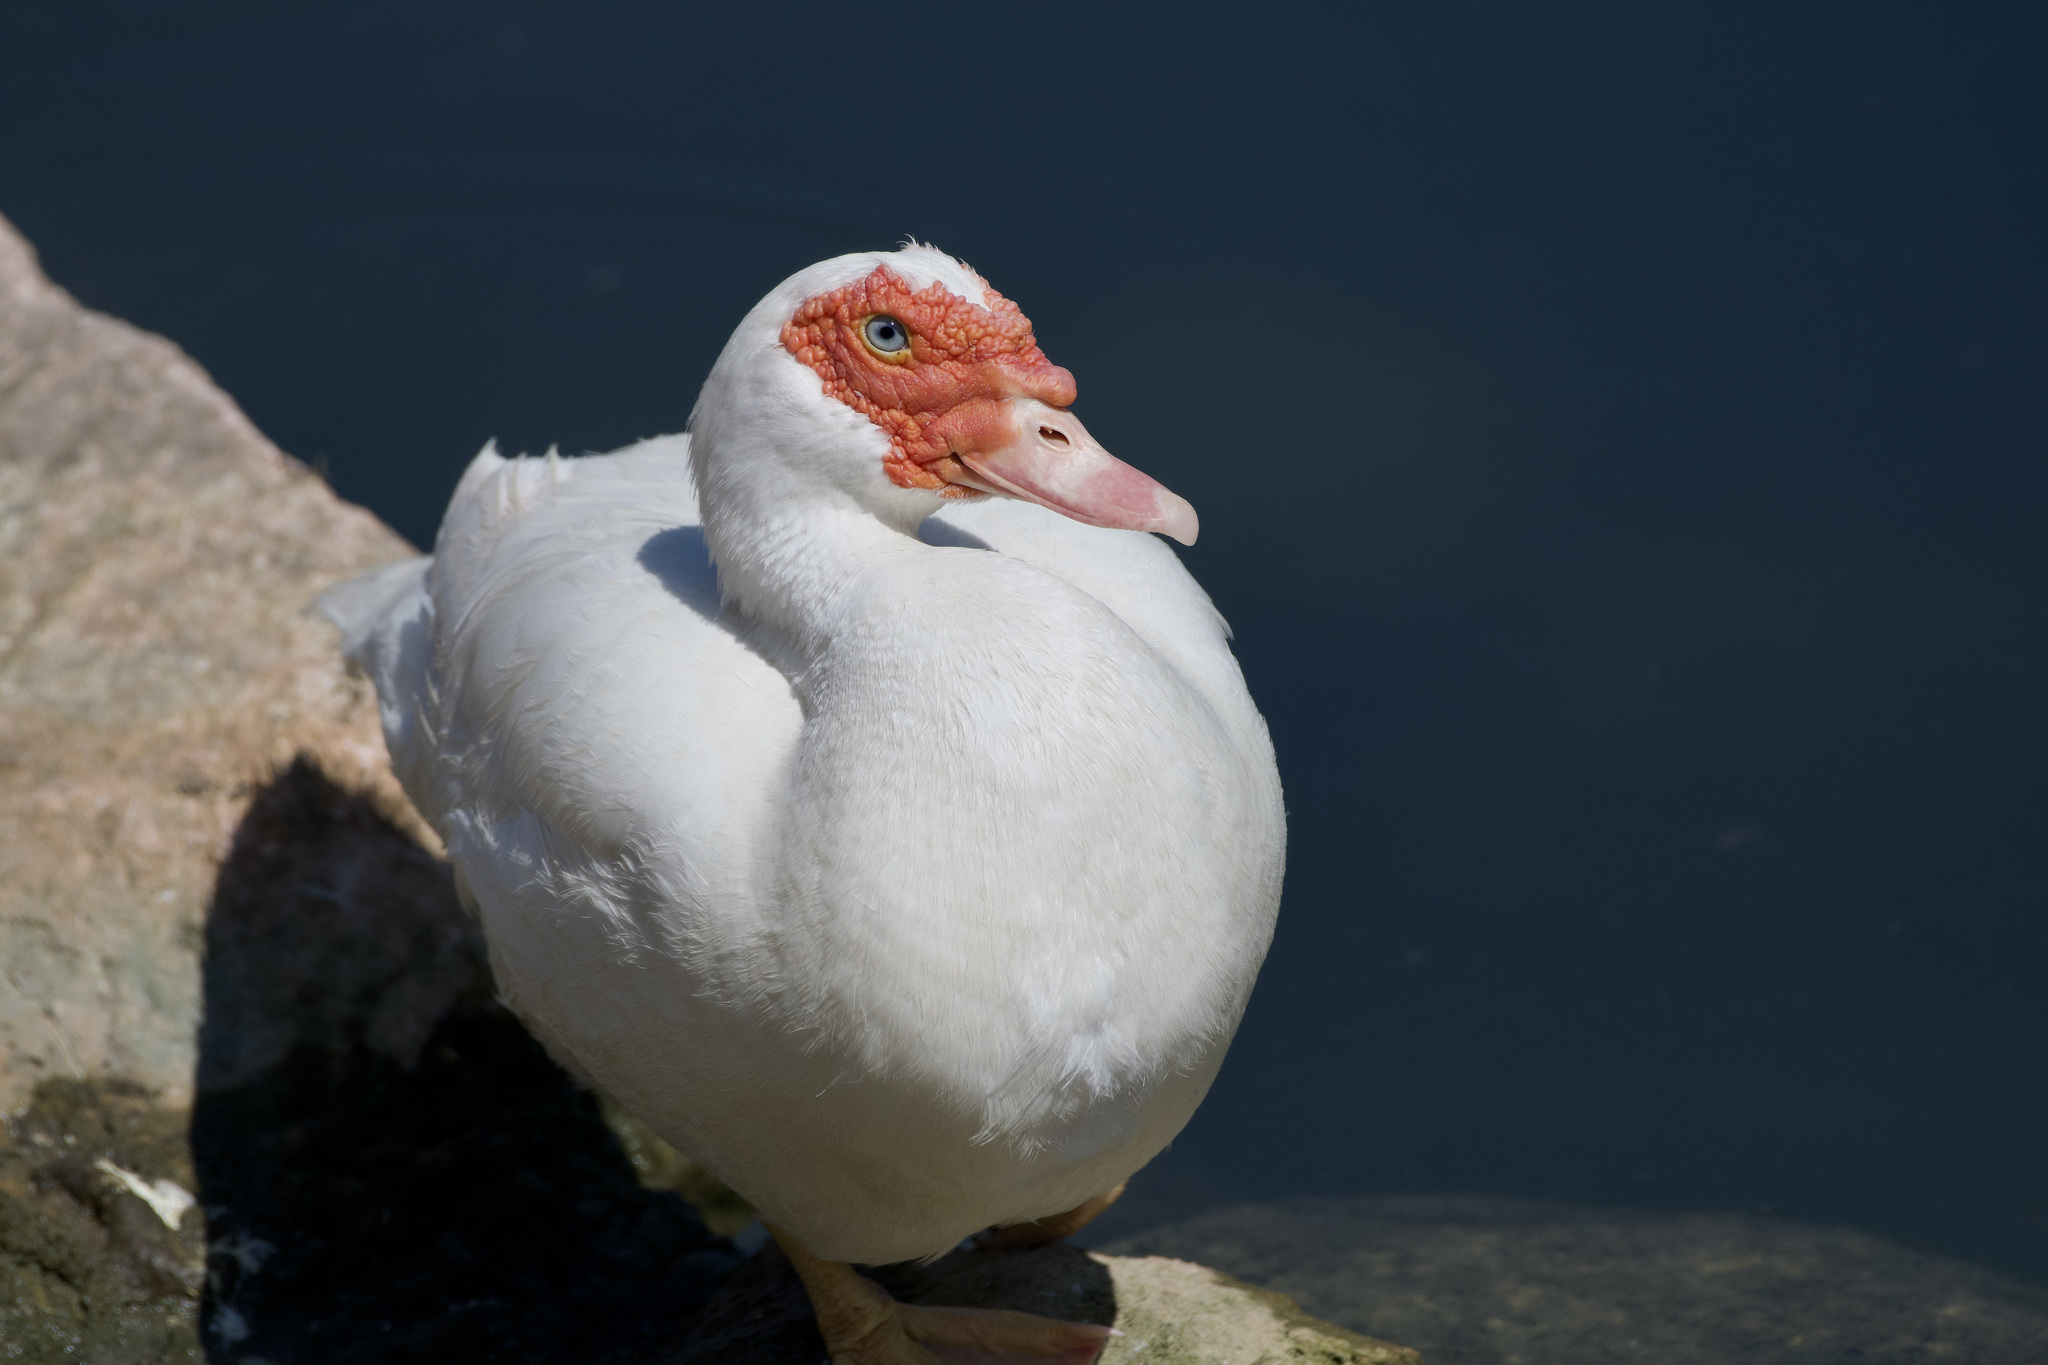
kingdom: Animalia
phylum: Chordata
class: Aves
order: Anseriformes
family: Anatidae
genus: Cairina
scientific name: Cairina moschata
